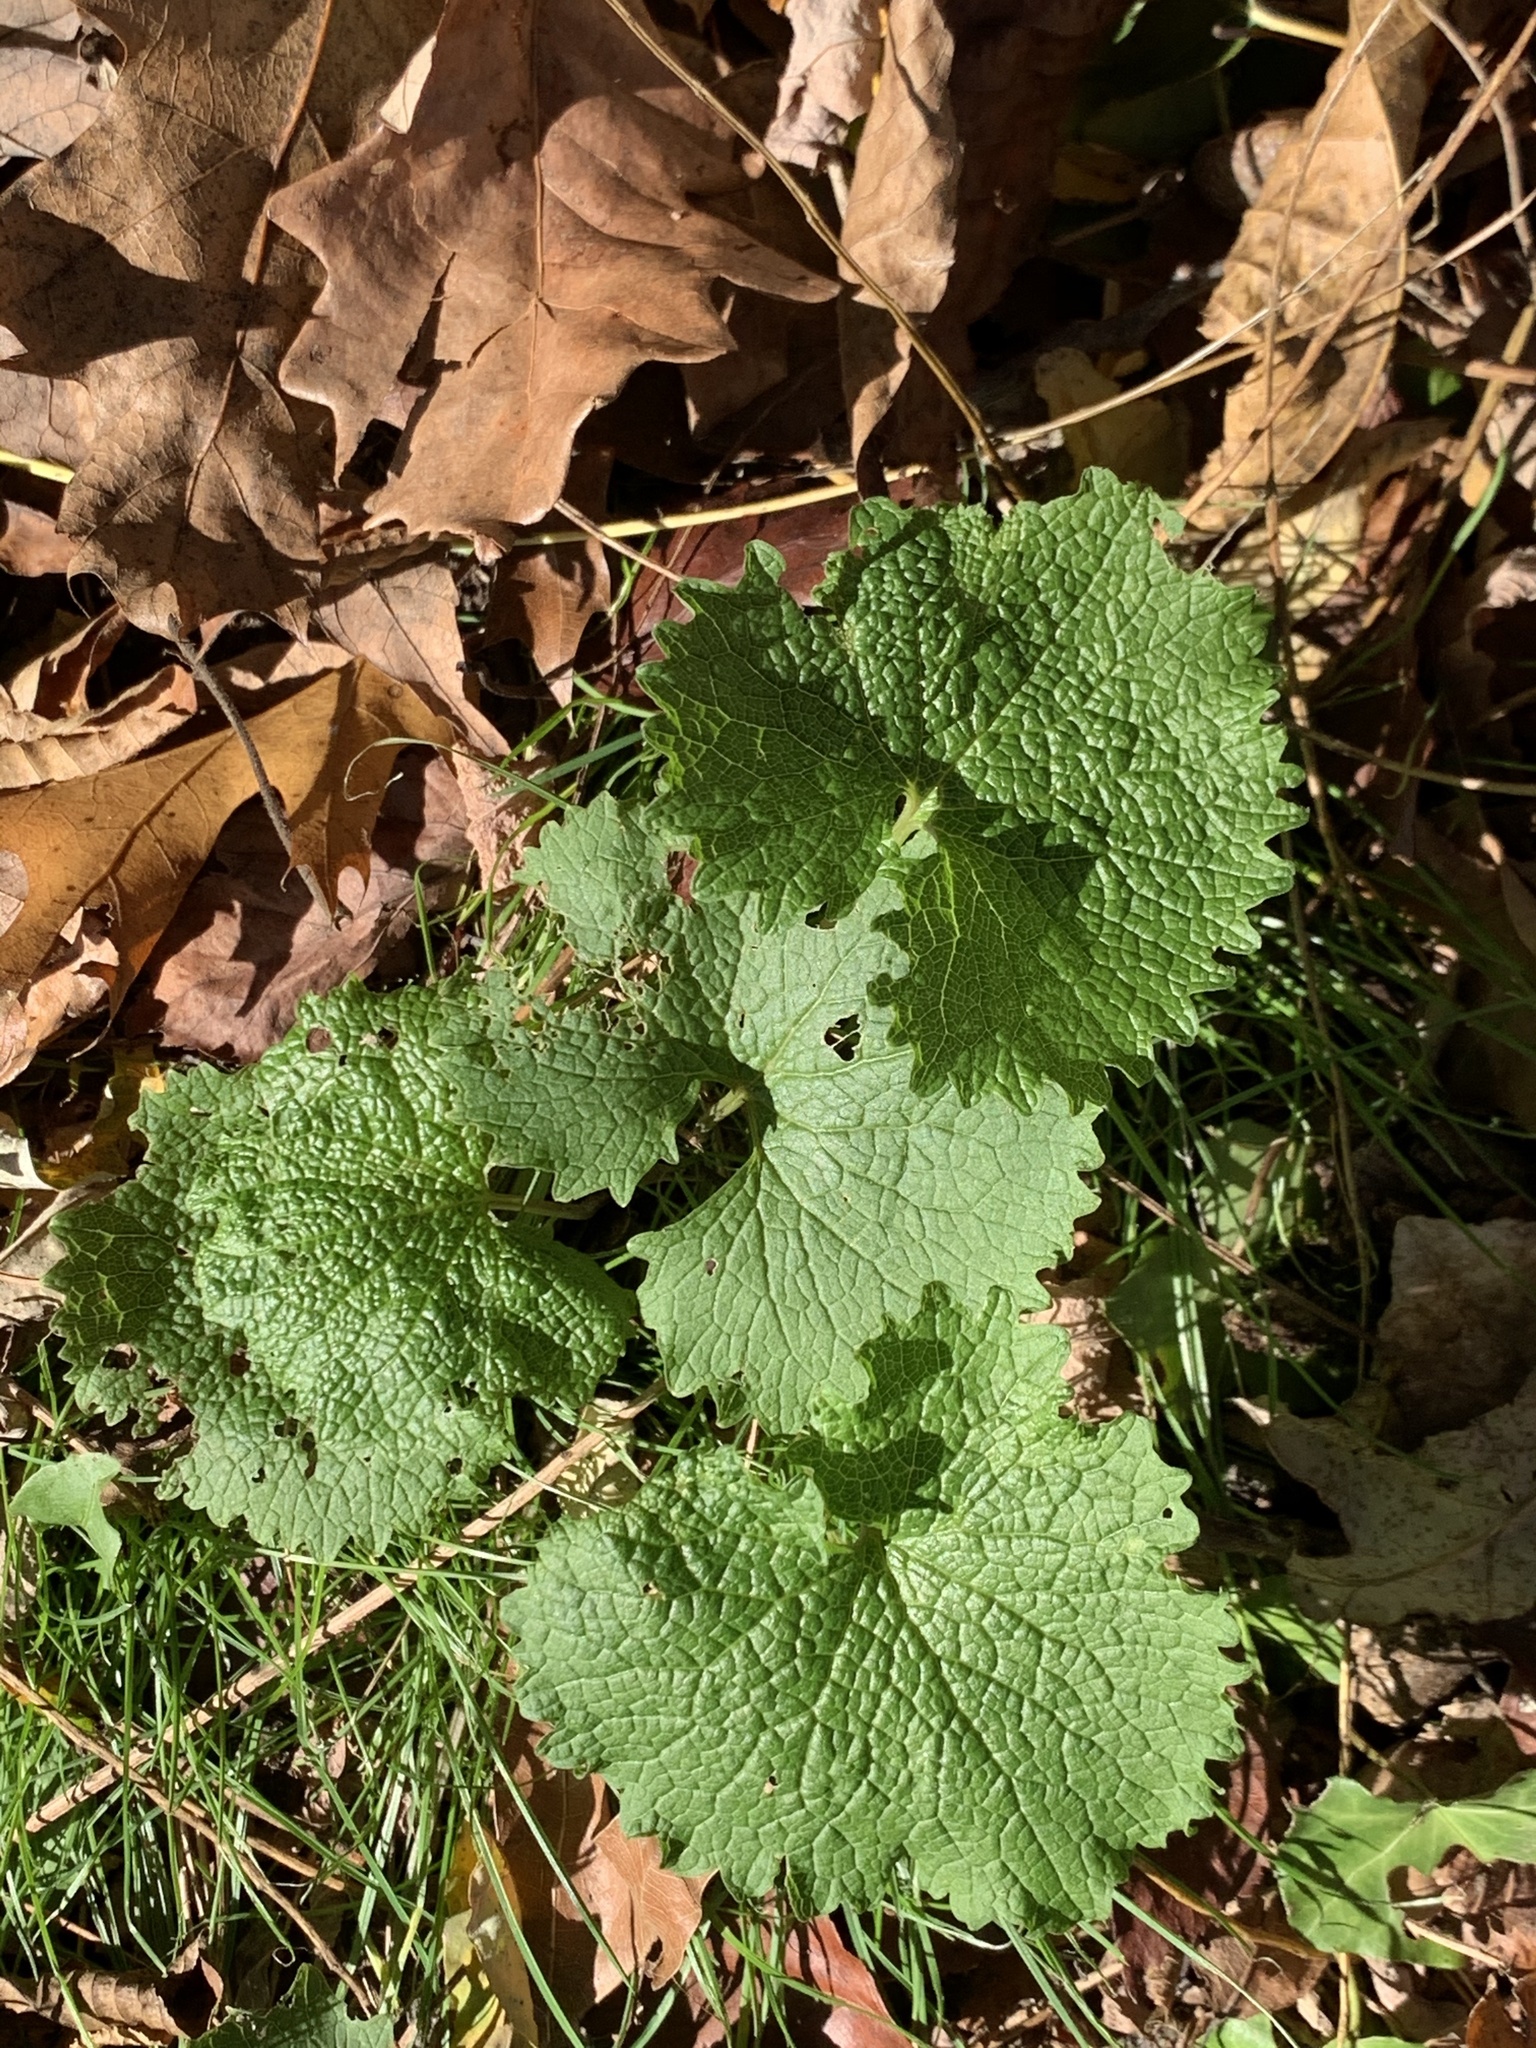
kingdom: Plantae
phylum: Tracheophyta
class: Magnoliopsida
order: Brassicales
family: Brassicaceae
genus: Alliaria
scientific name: Alliaria petiolata
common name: Garlic mustard
